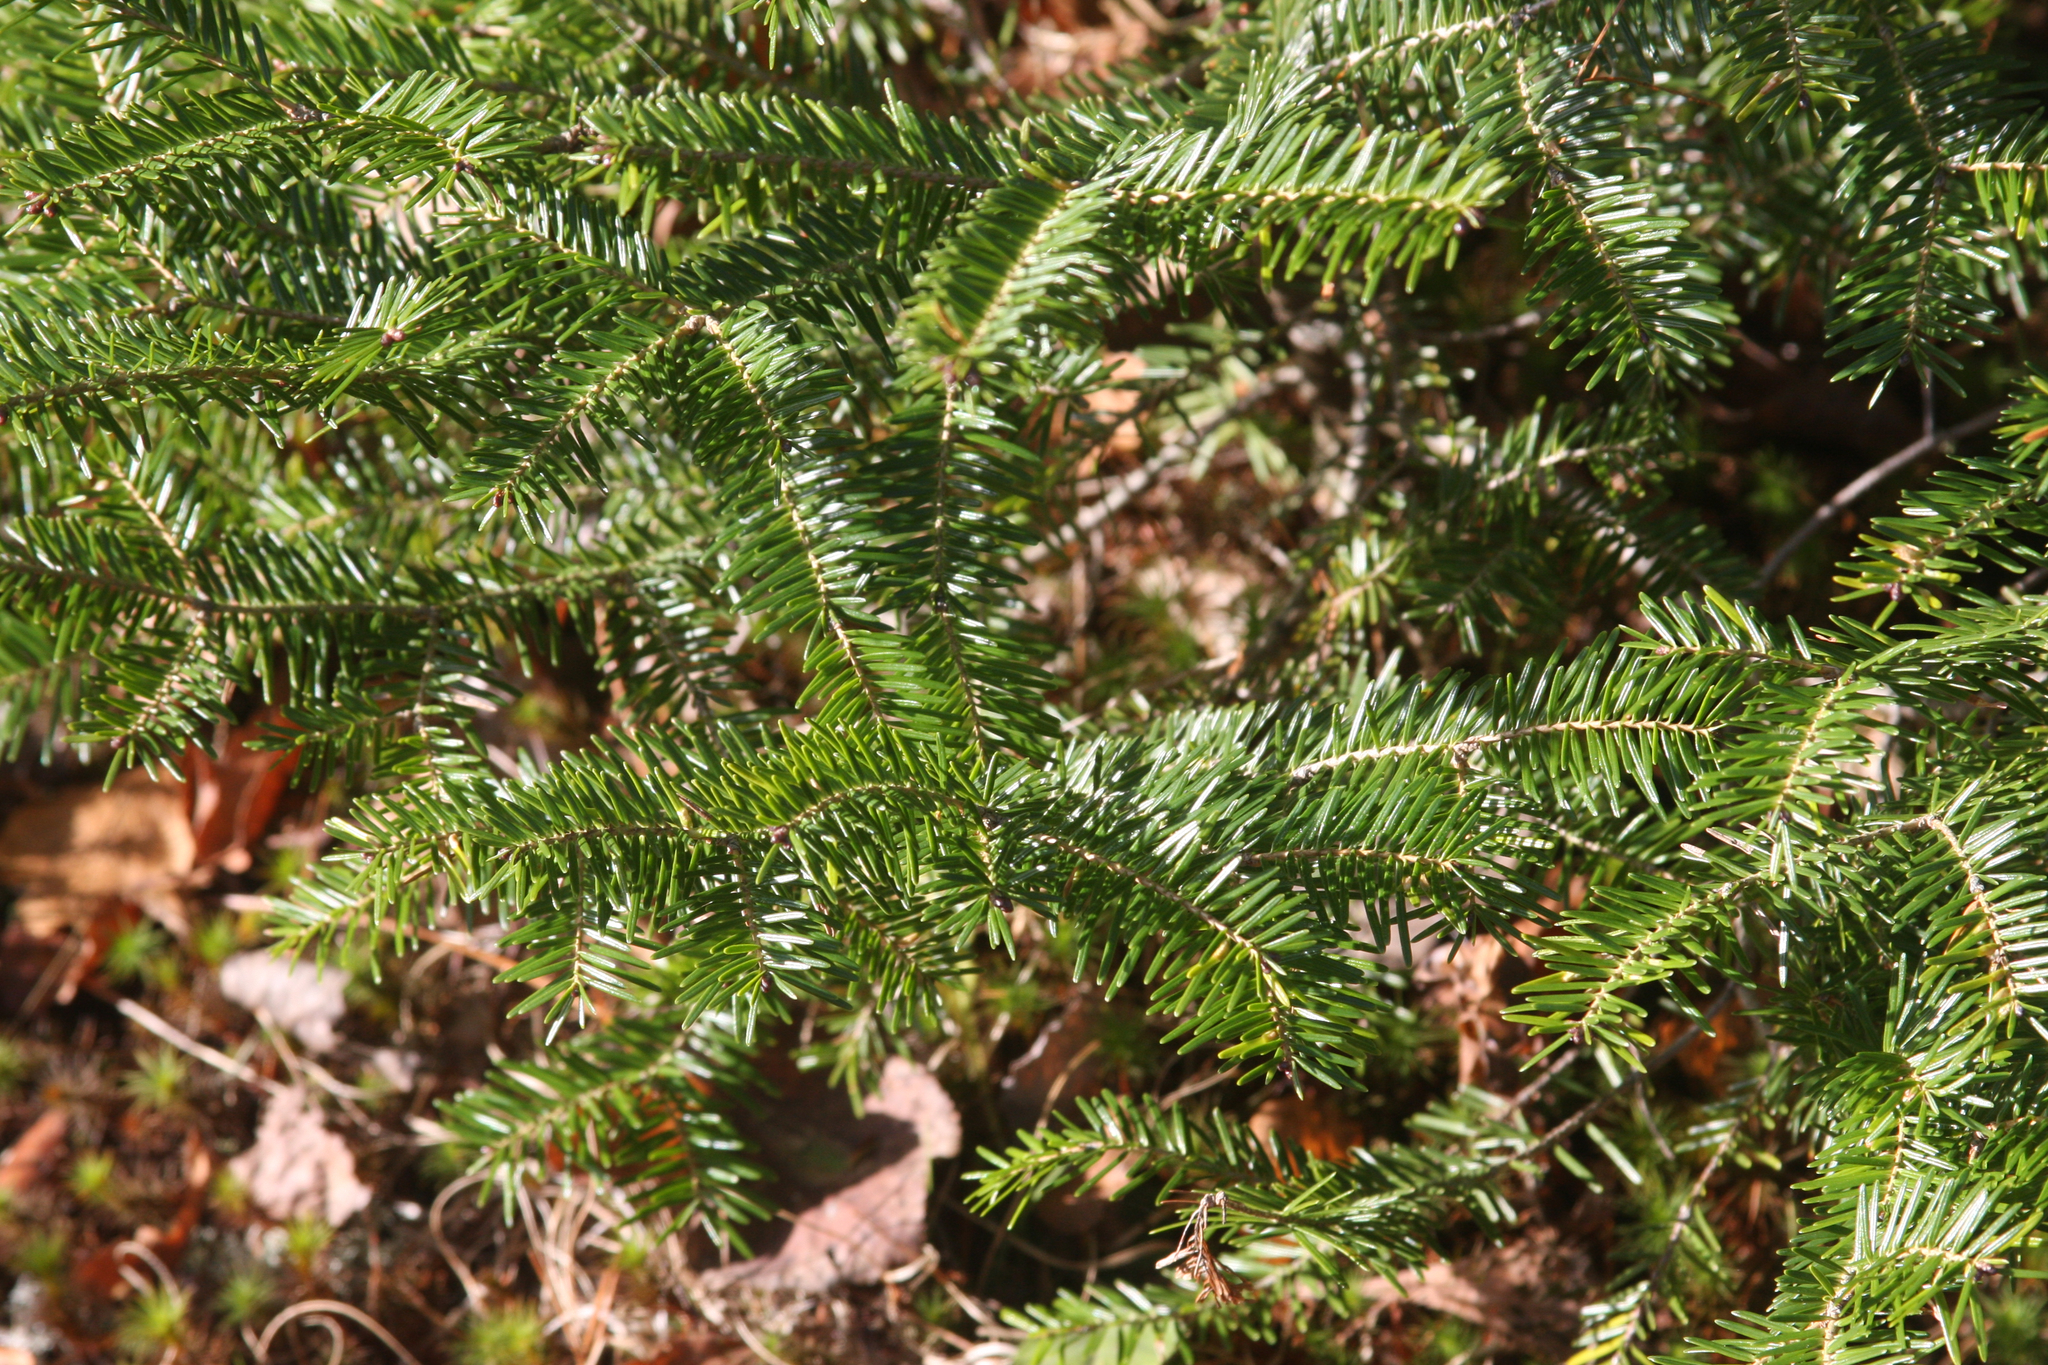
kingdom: Plantae
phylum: Tracheophyta
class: Pinopsida
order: Pinales
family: Pinaceae
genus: Abies
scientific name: Abies balsamea
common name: Balsam fir
